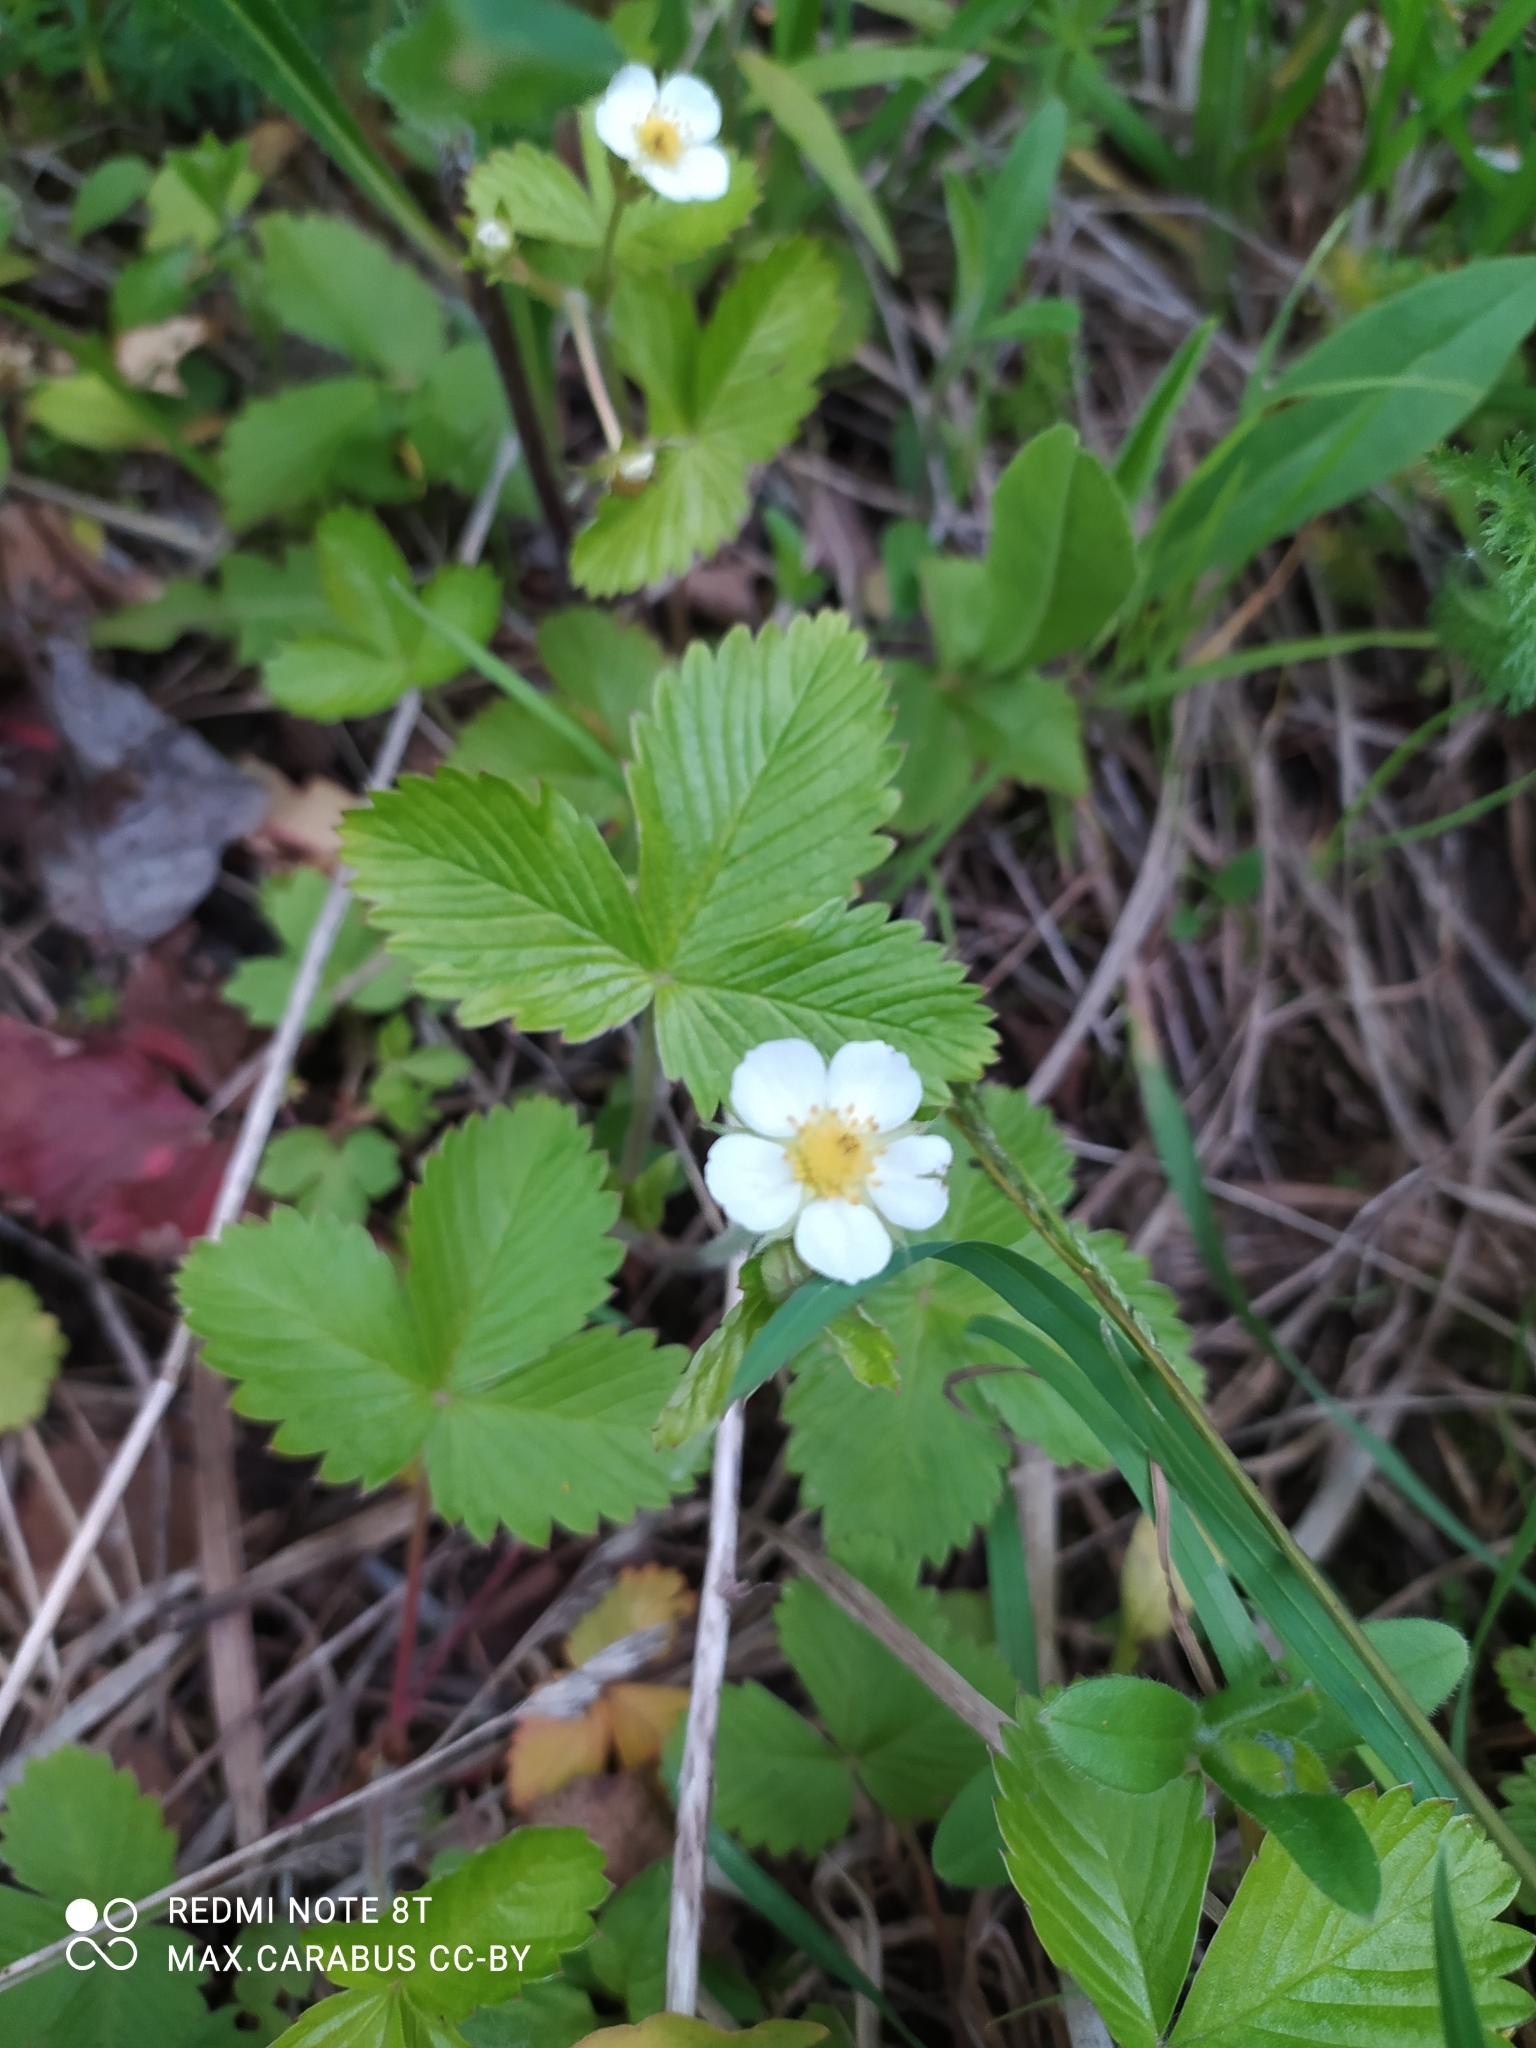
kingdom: Plantae
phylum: Tracheophyta
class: Magnoliopsida
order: Rosales
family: Rosaceae
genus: Fragaria
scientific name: Fragaria vesca
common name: Wild strawberry
